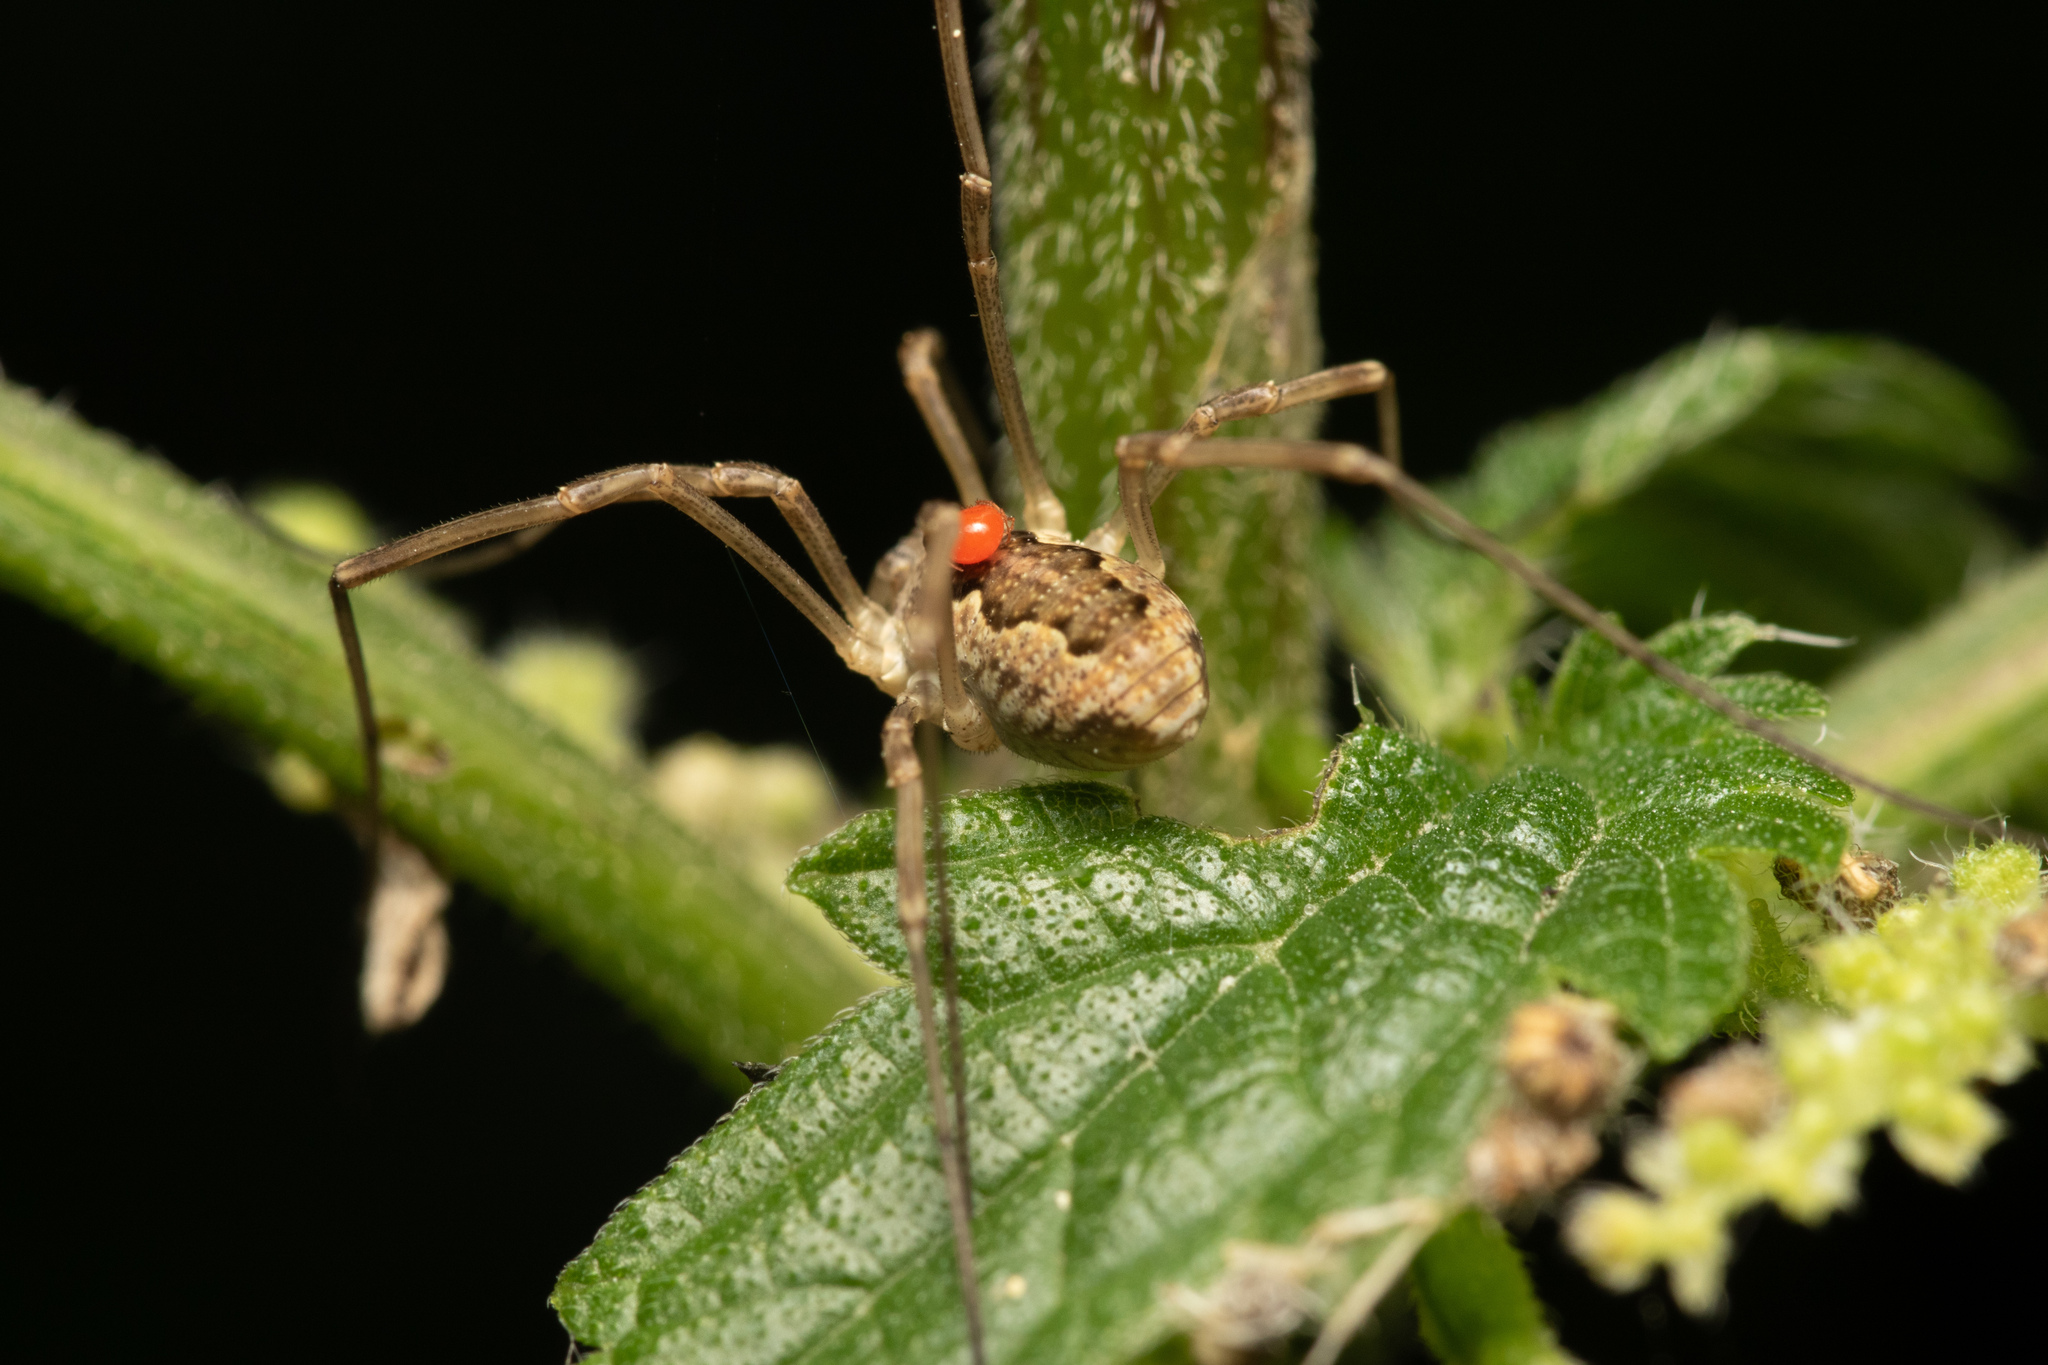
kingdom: Animalia
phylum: Arthropoda
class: Arachnida
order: Opiliones
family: Phalangiidae
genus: Mitopus
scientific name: Mitopus morio
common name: Saddleback harvestman
